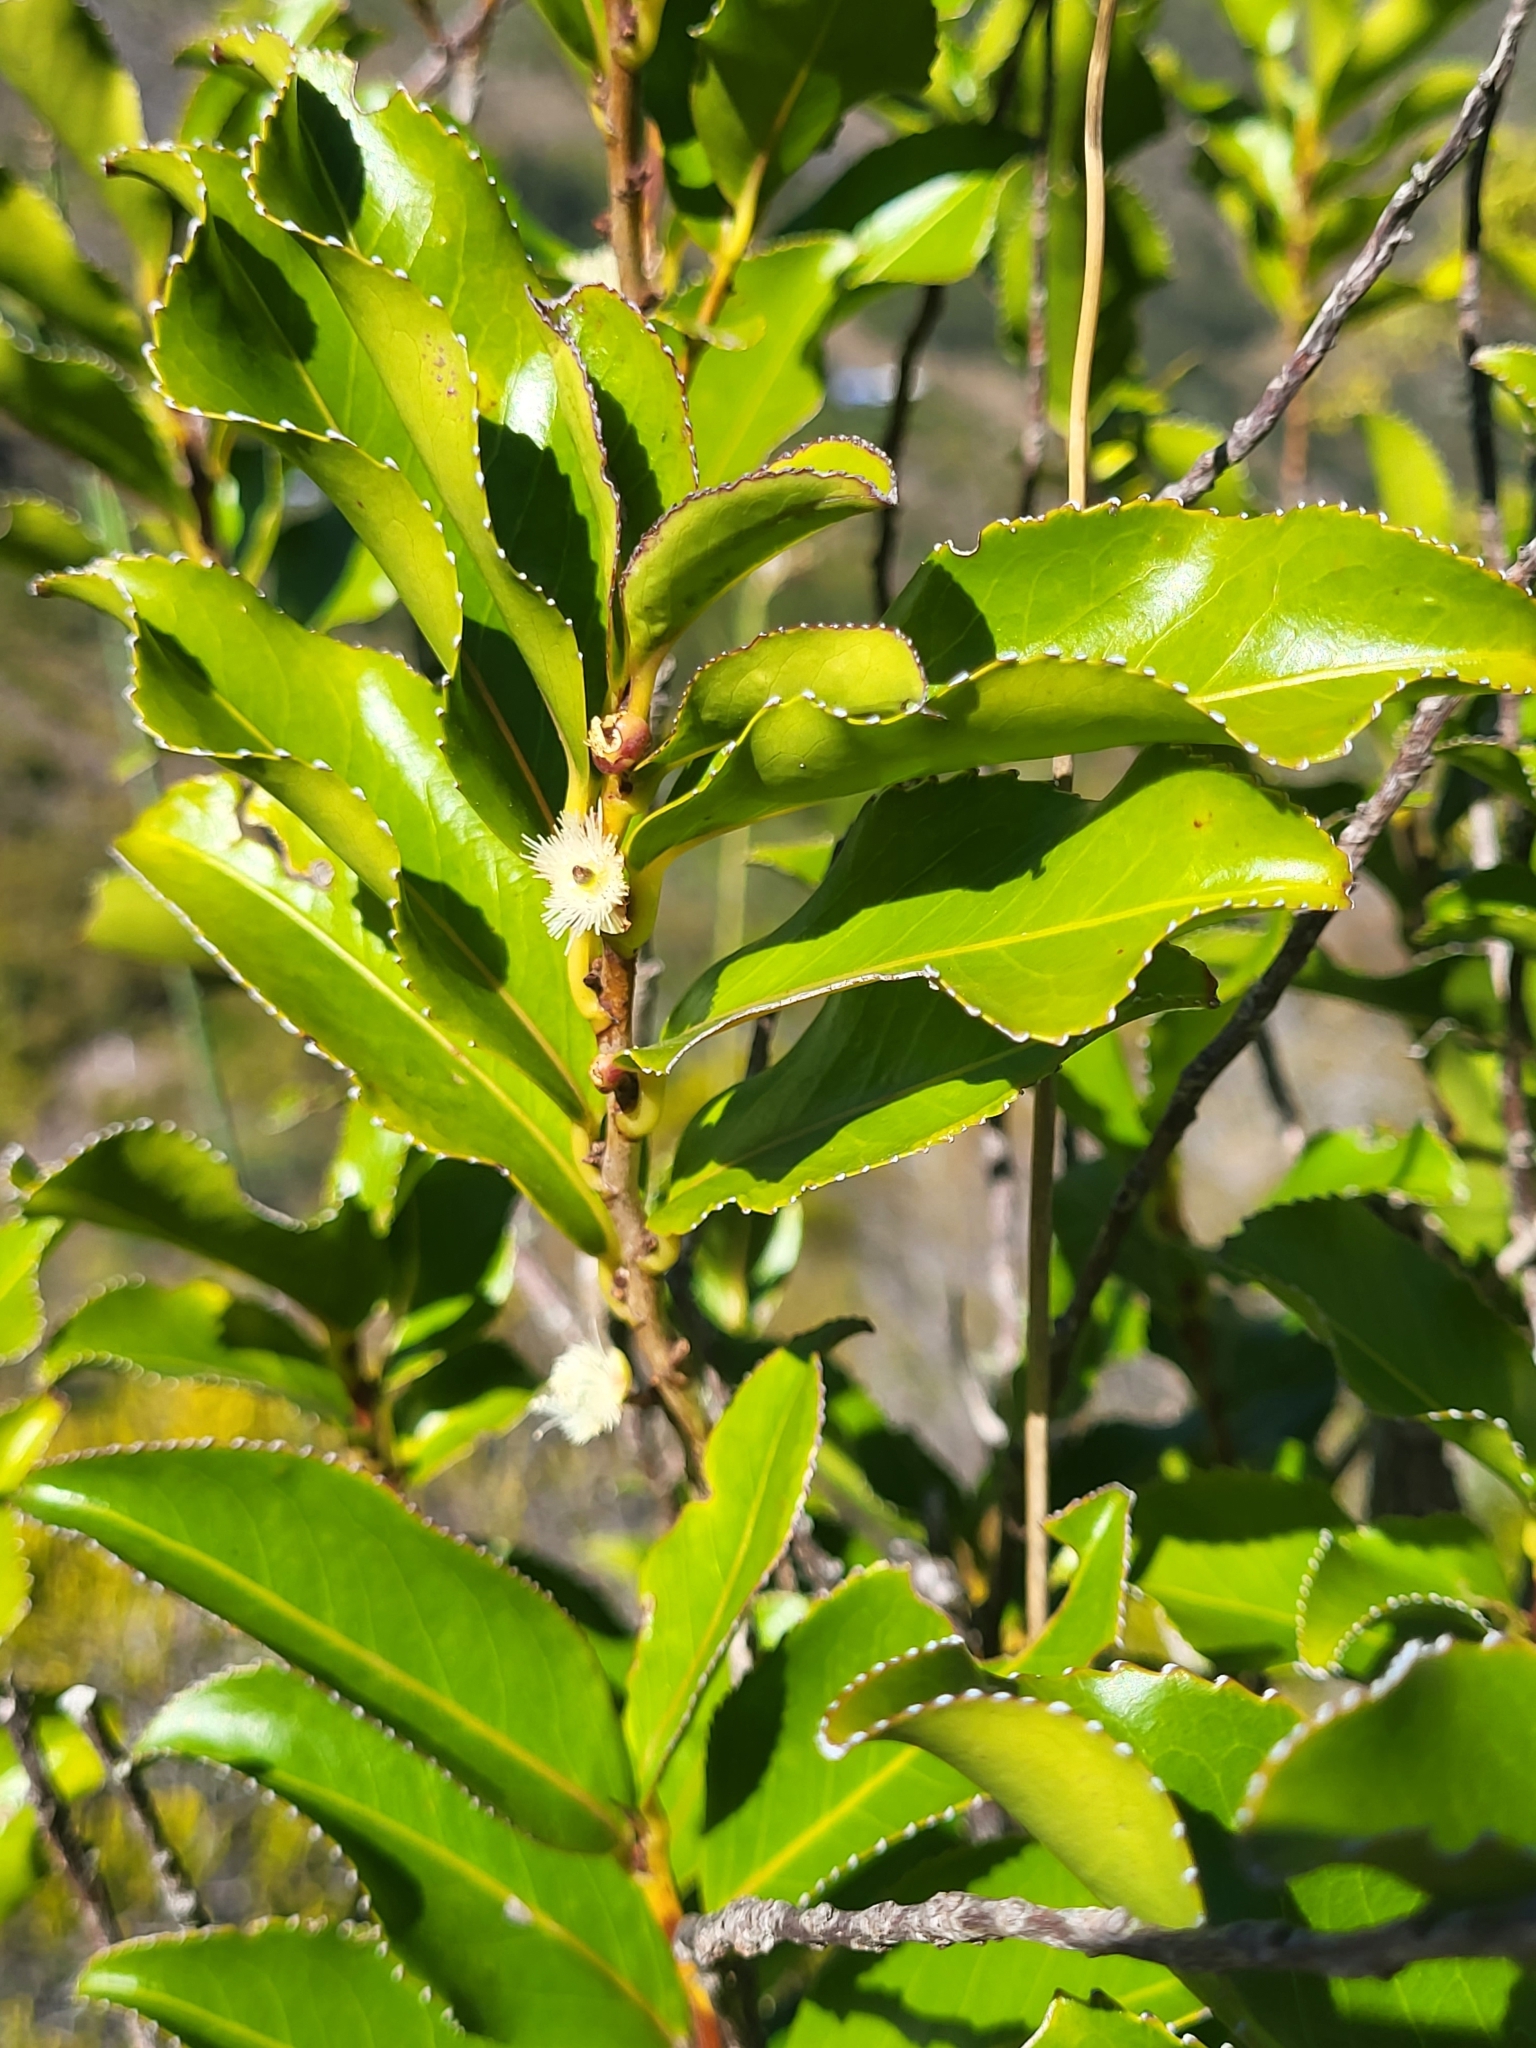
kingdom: Plantae
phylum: Tracheophyta
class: Magnoliopsida
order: Crossosomatales
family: Aphloiaceae
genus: Aphloia
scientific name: Aphloia theiformis
